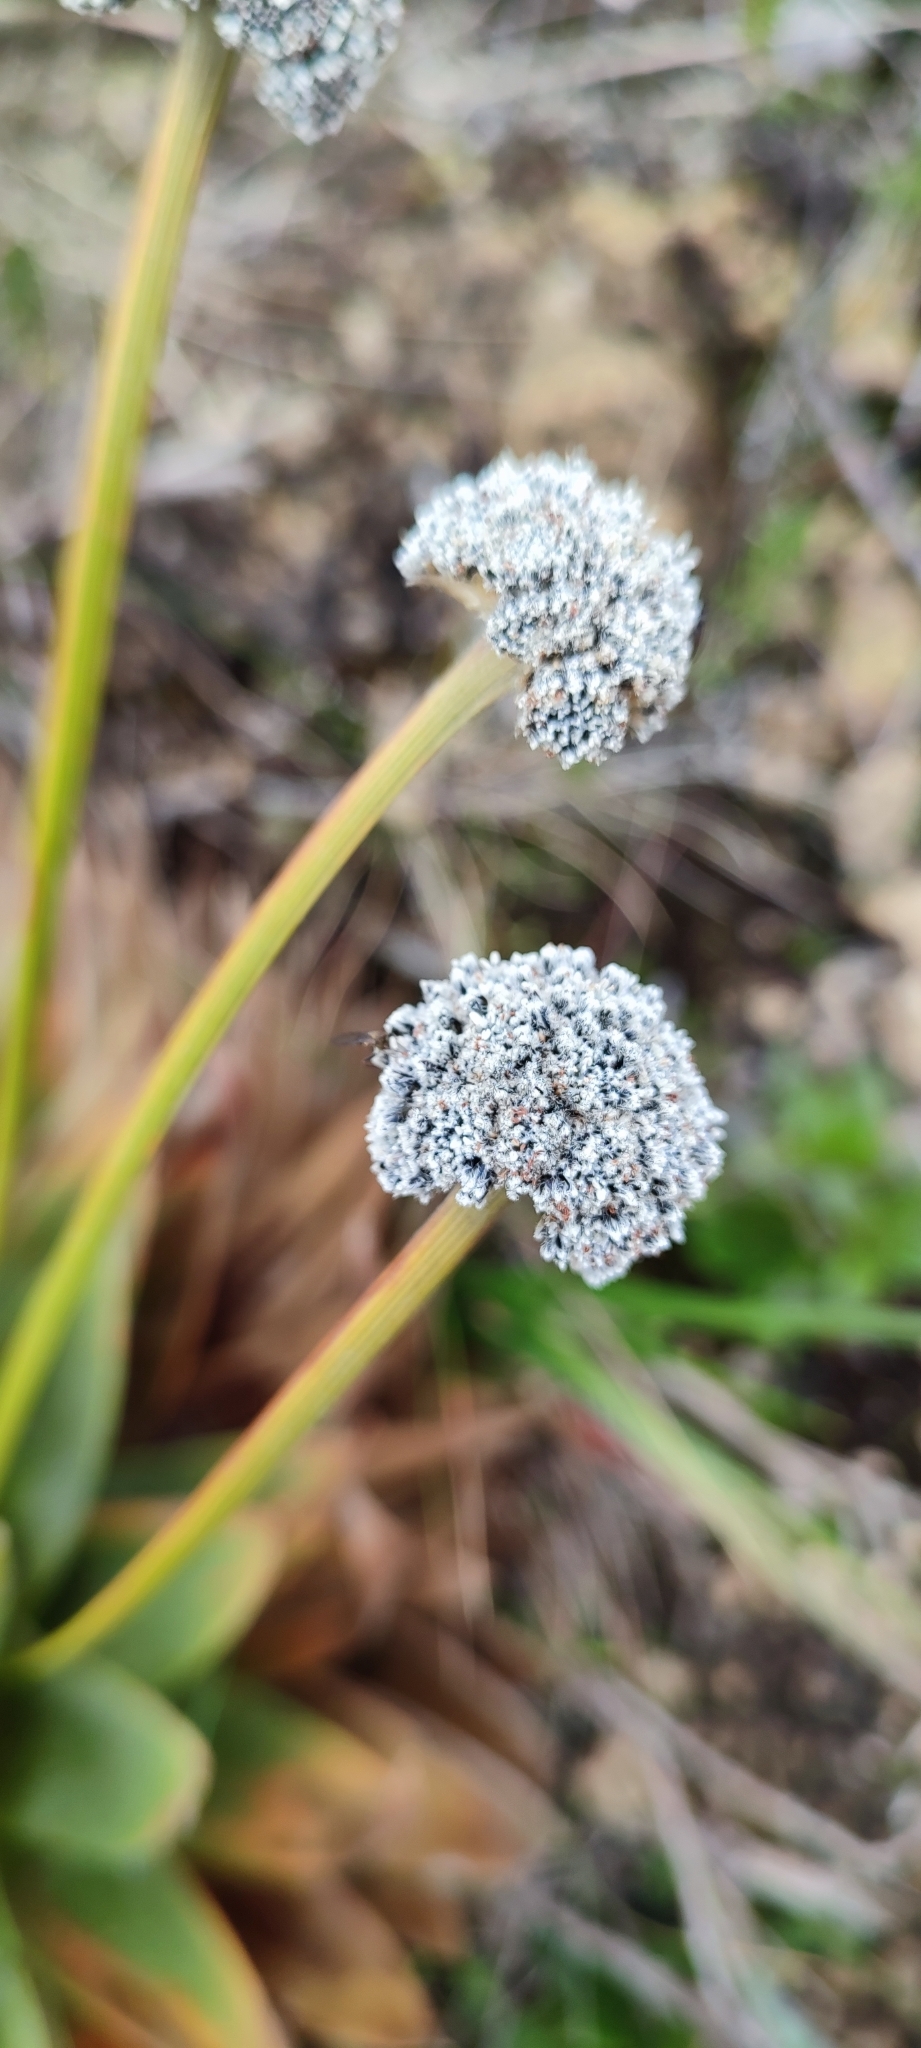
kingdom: Plantae
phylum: Tracheophyta
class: Liliopsida
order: Poales
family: Eriocaulaceae
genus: Paepalanthus
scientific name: Paepalanthus alpinus
